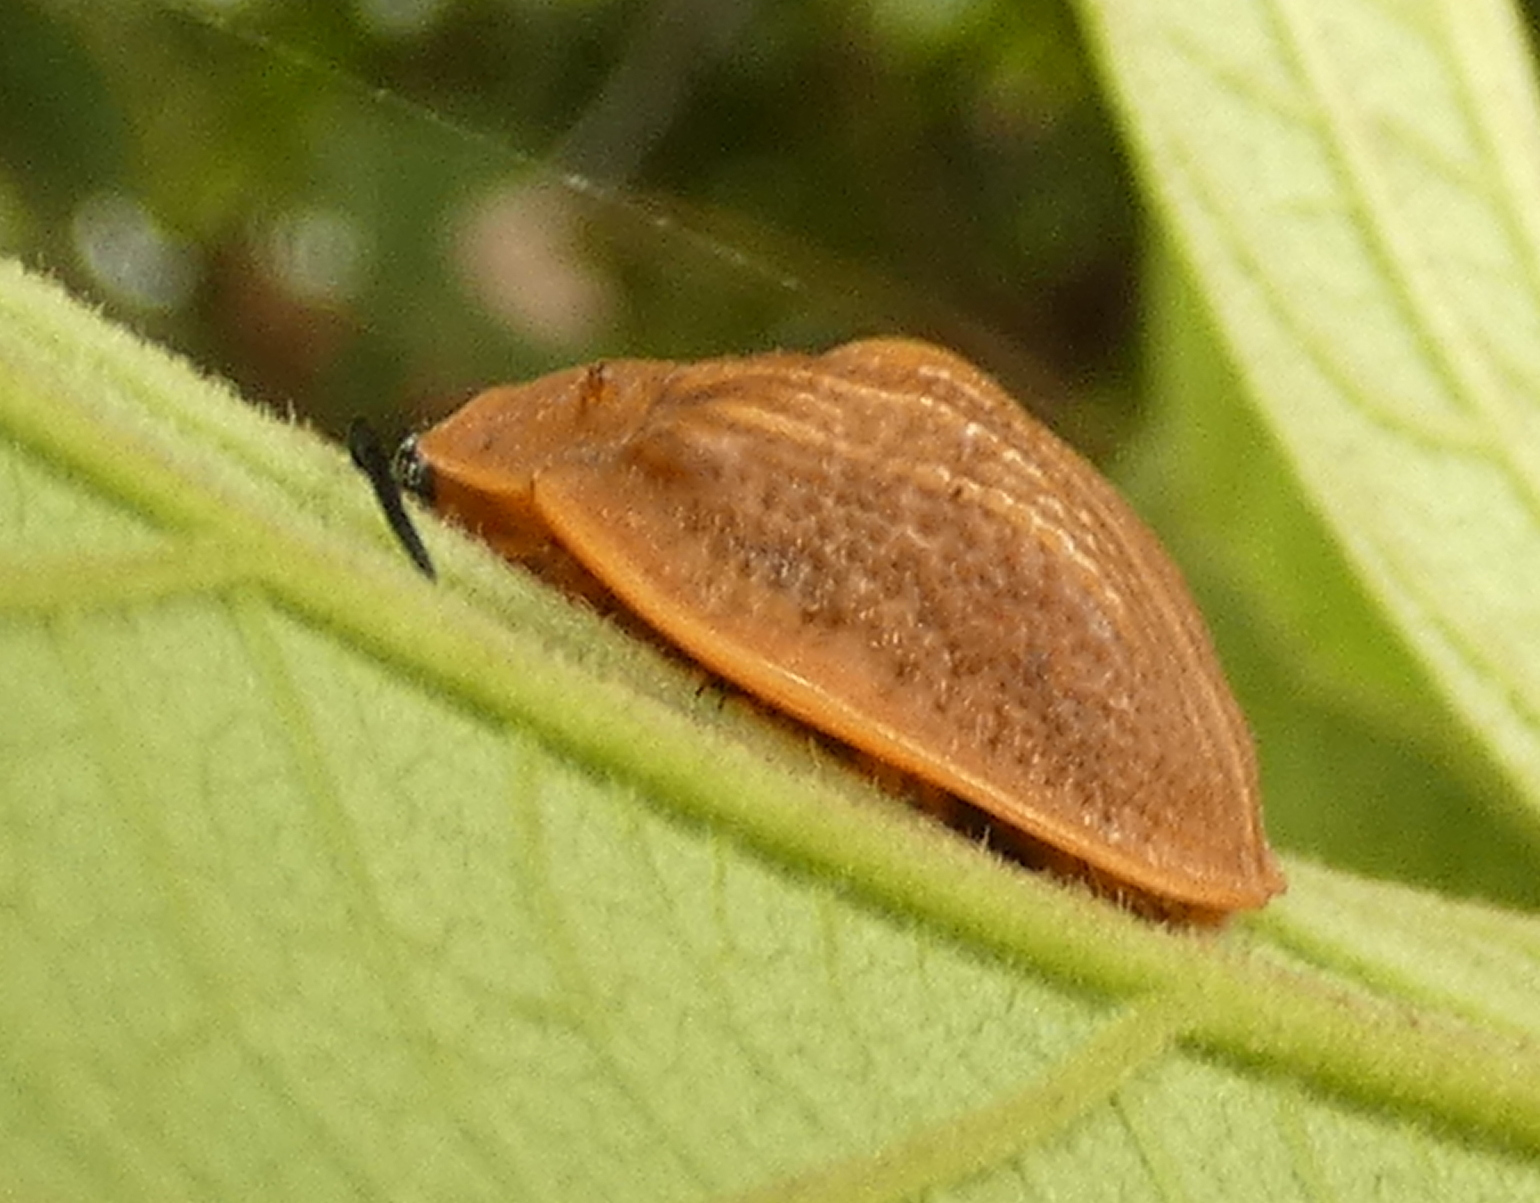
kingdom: Animalia
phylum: Arthropoda
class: Insecta
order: Coleoptera
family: Chrysomelidae
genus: Cyclosoma
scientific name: Cyclosoma nigritarsis
